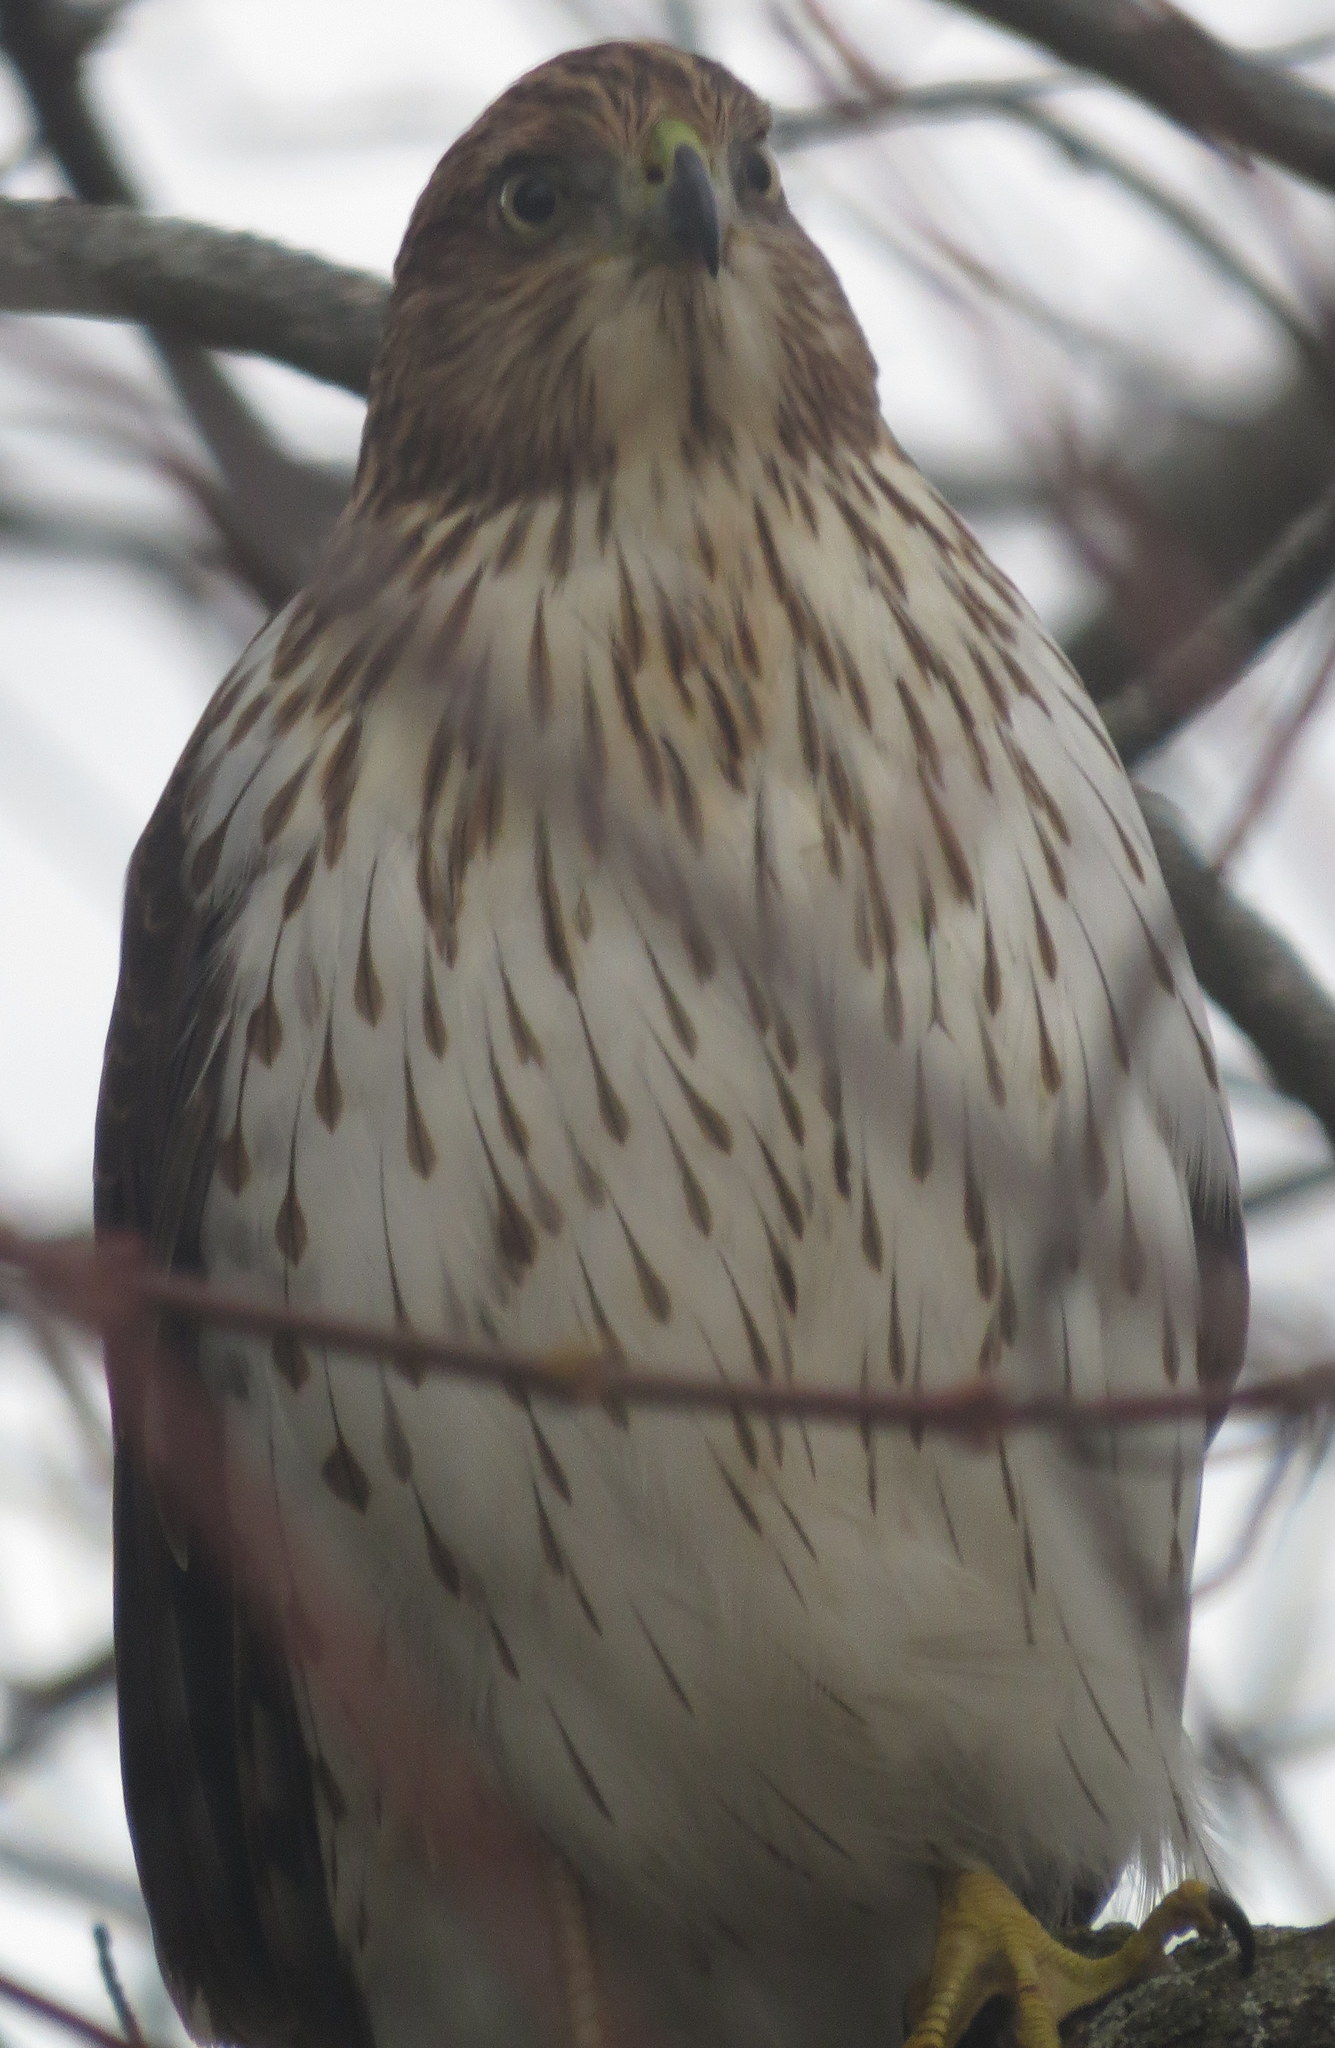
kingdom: Animalia
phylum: Chordata
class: Aves
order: Accipitriformes
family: Accipitridae
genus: Accipiter
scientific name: Accipiter cooperii
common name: Cooper's hawk
